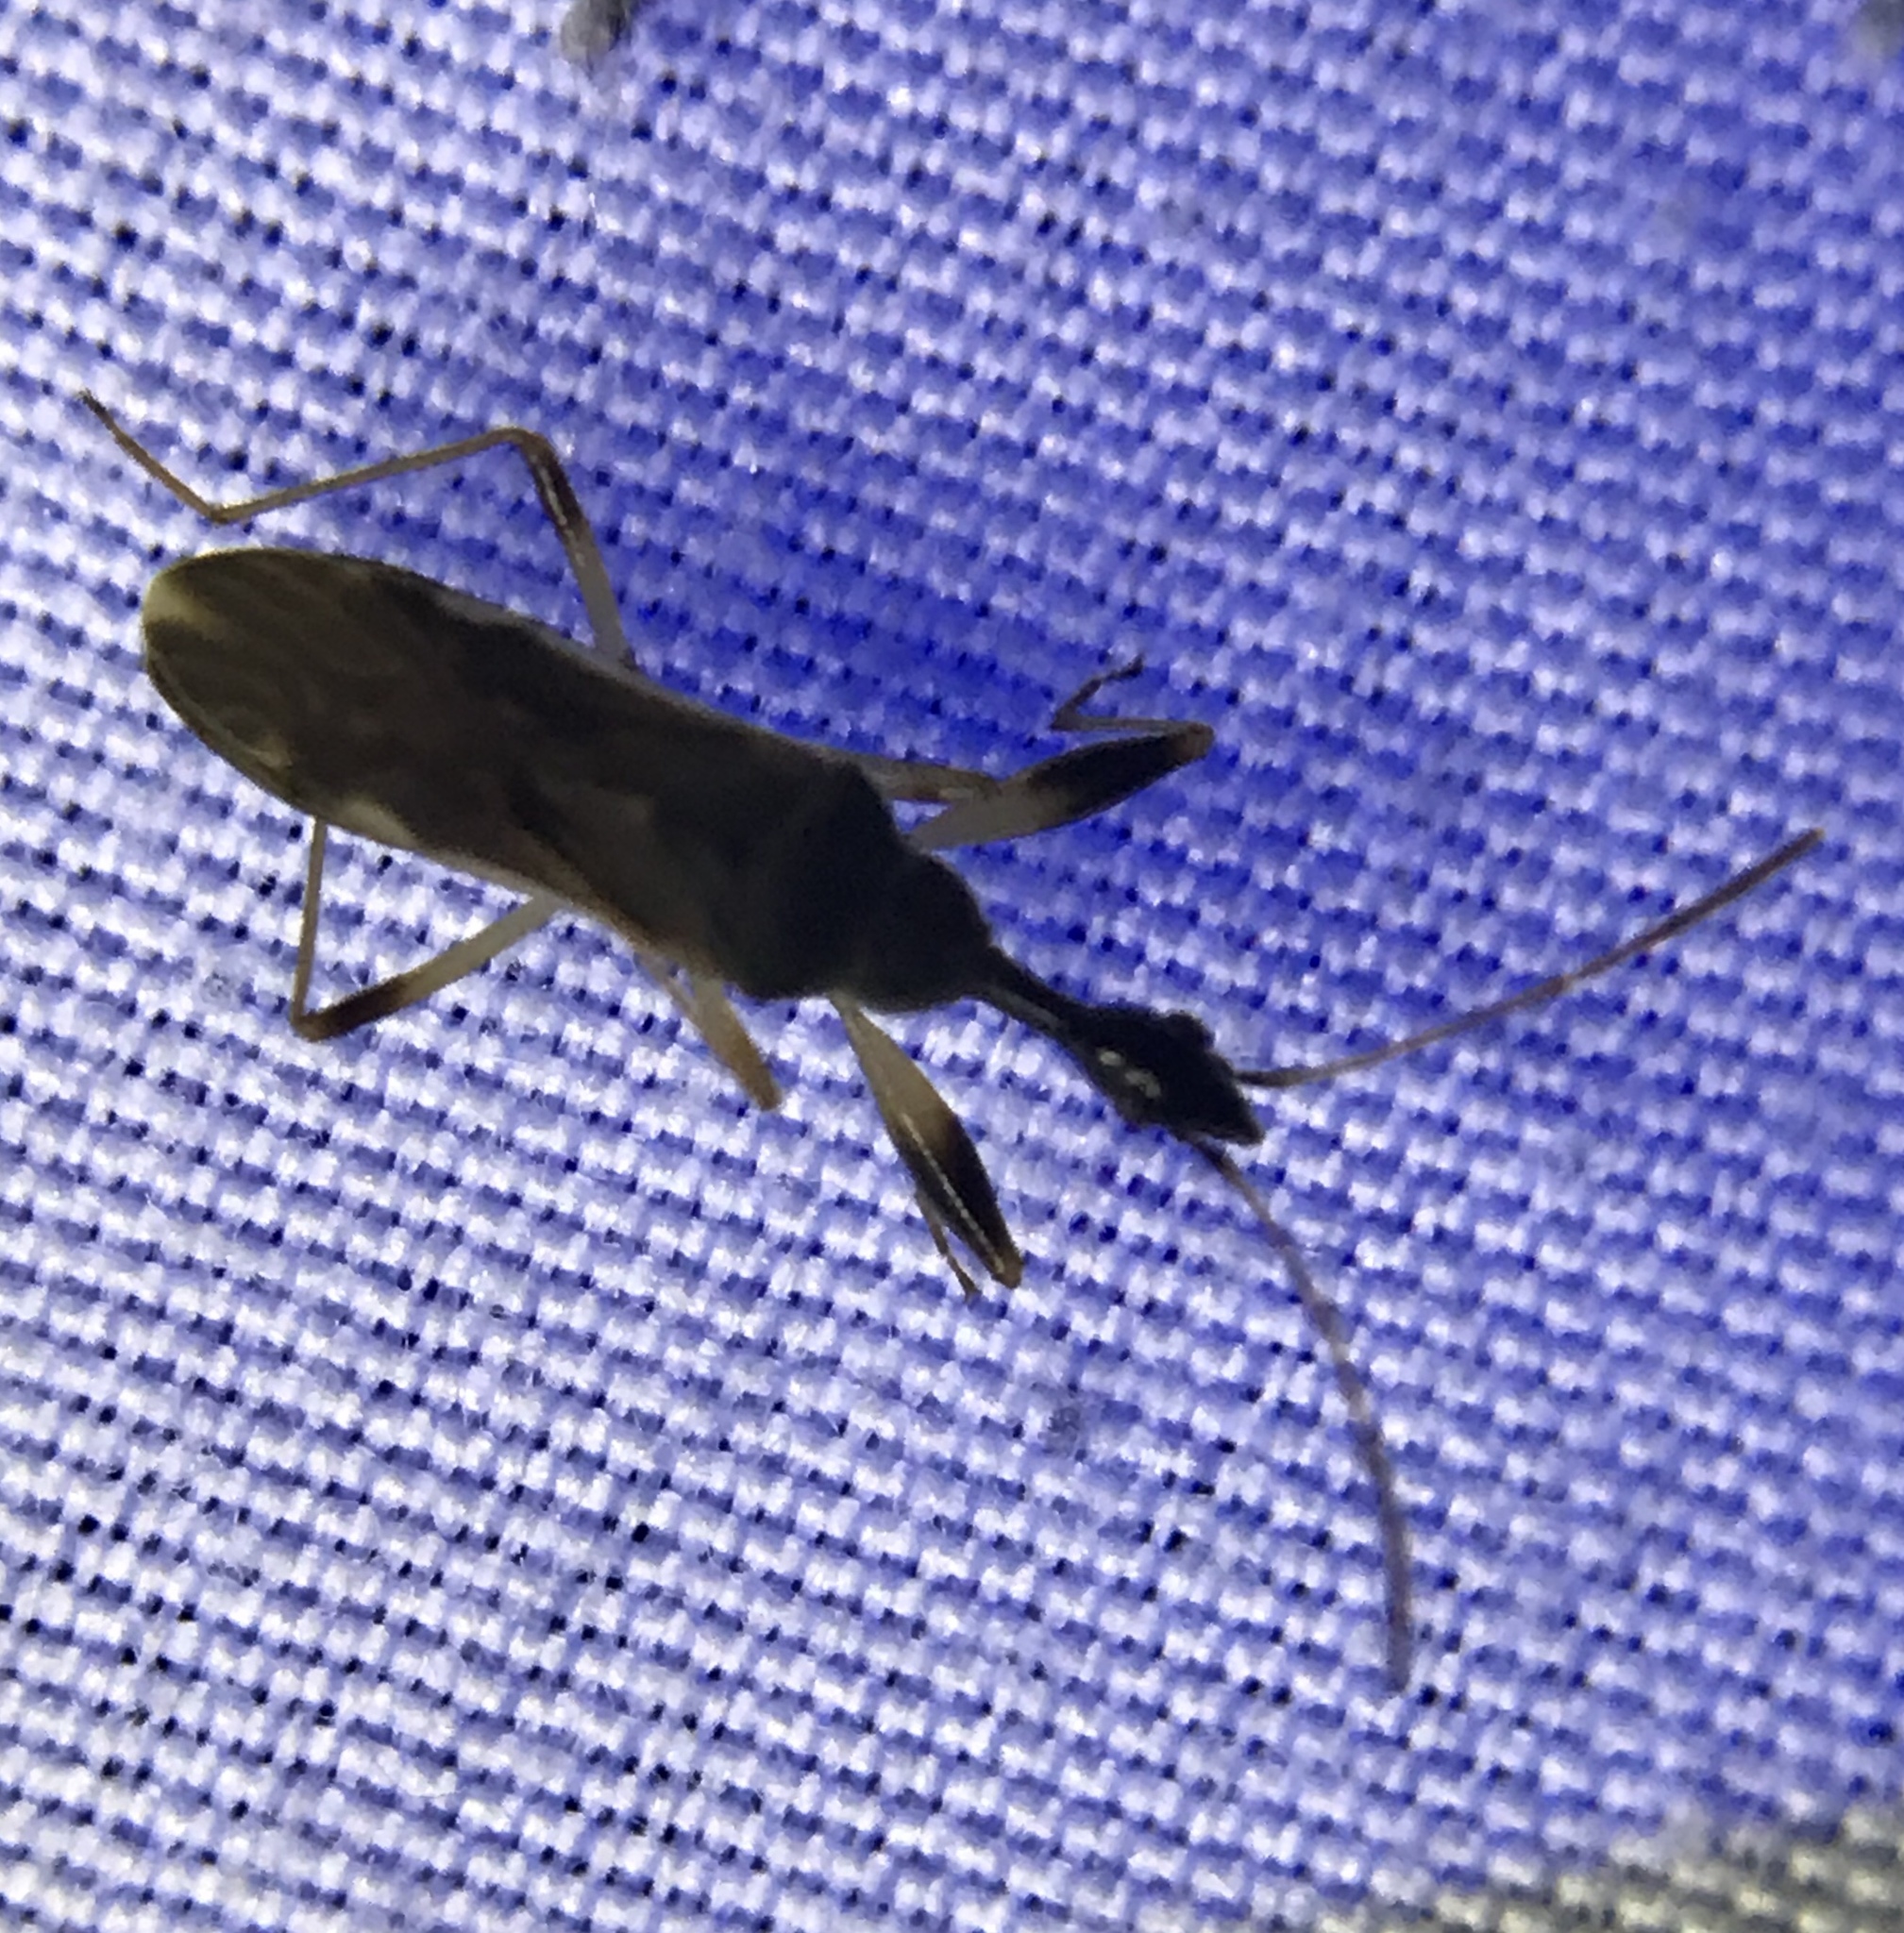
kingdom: Animalia
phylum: Arthropoda
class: Insecta
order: Hemiptera
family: Rhyparochromidae
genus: Myodocha
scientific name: Myodocha serripes
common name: Long-necked seed bug
